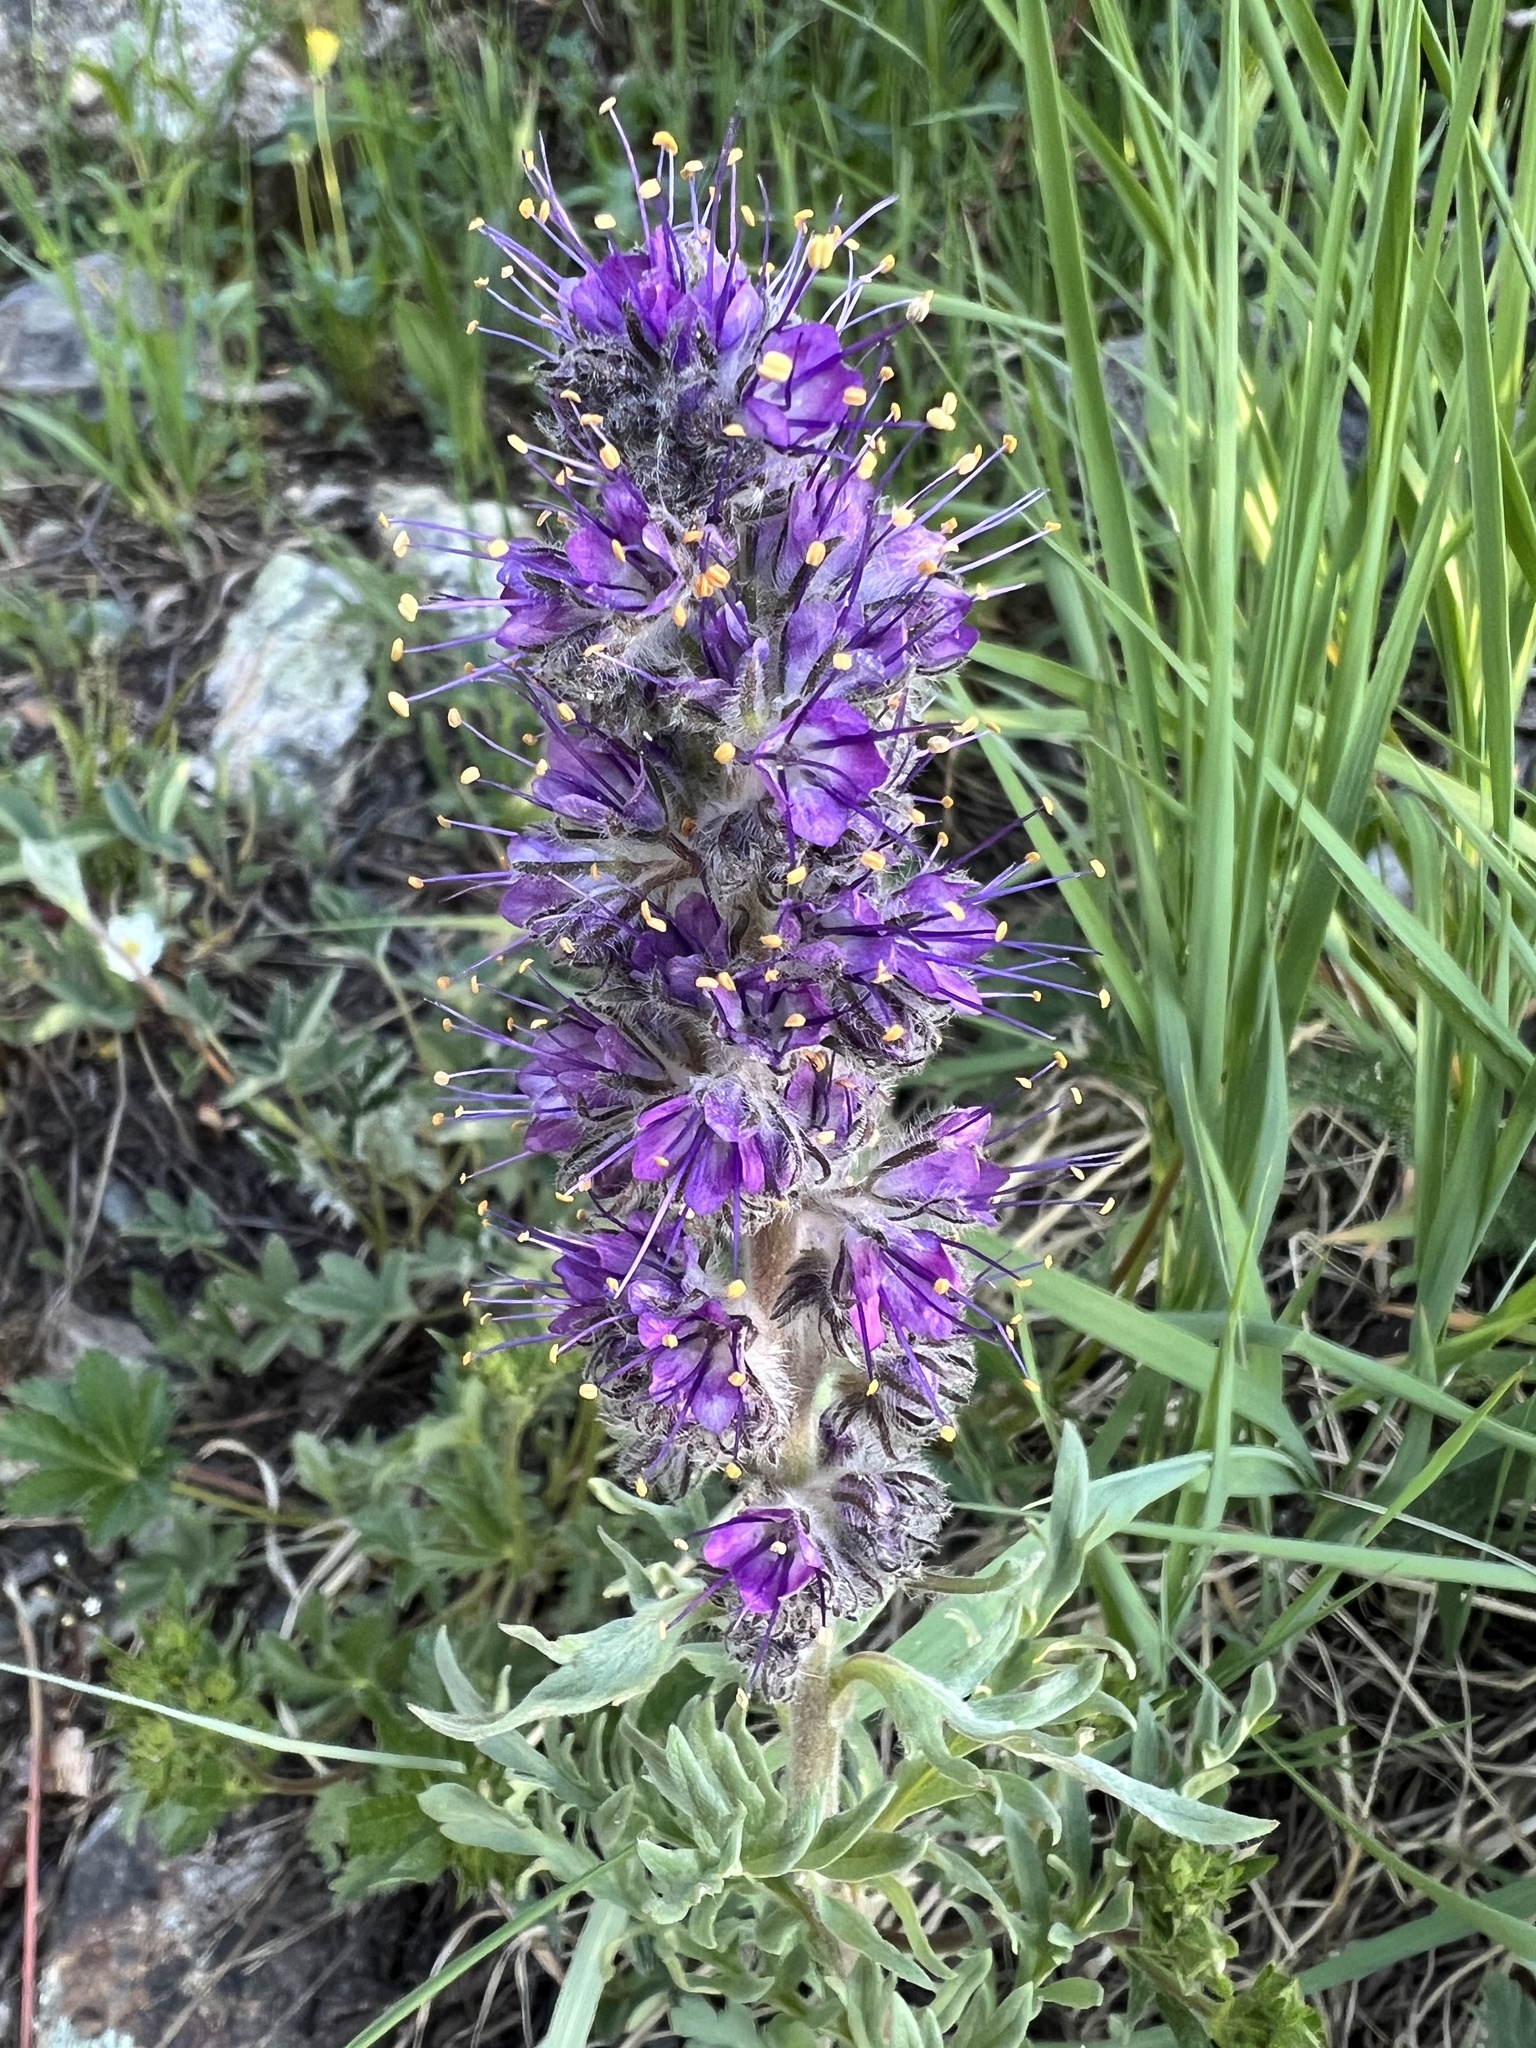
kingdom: Plantae
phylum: Tracheophyta
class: Magnoliopsida
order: Boraginales
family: Hydrophyllaceae
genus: Phacelia
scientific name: Phacelia sericea
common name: Silky phacelia
